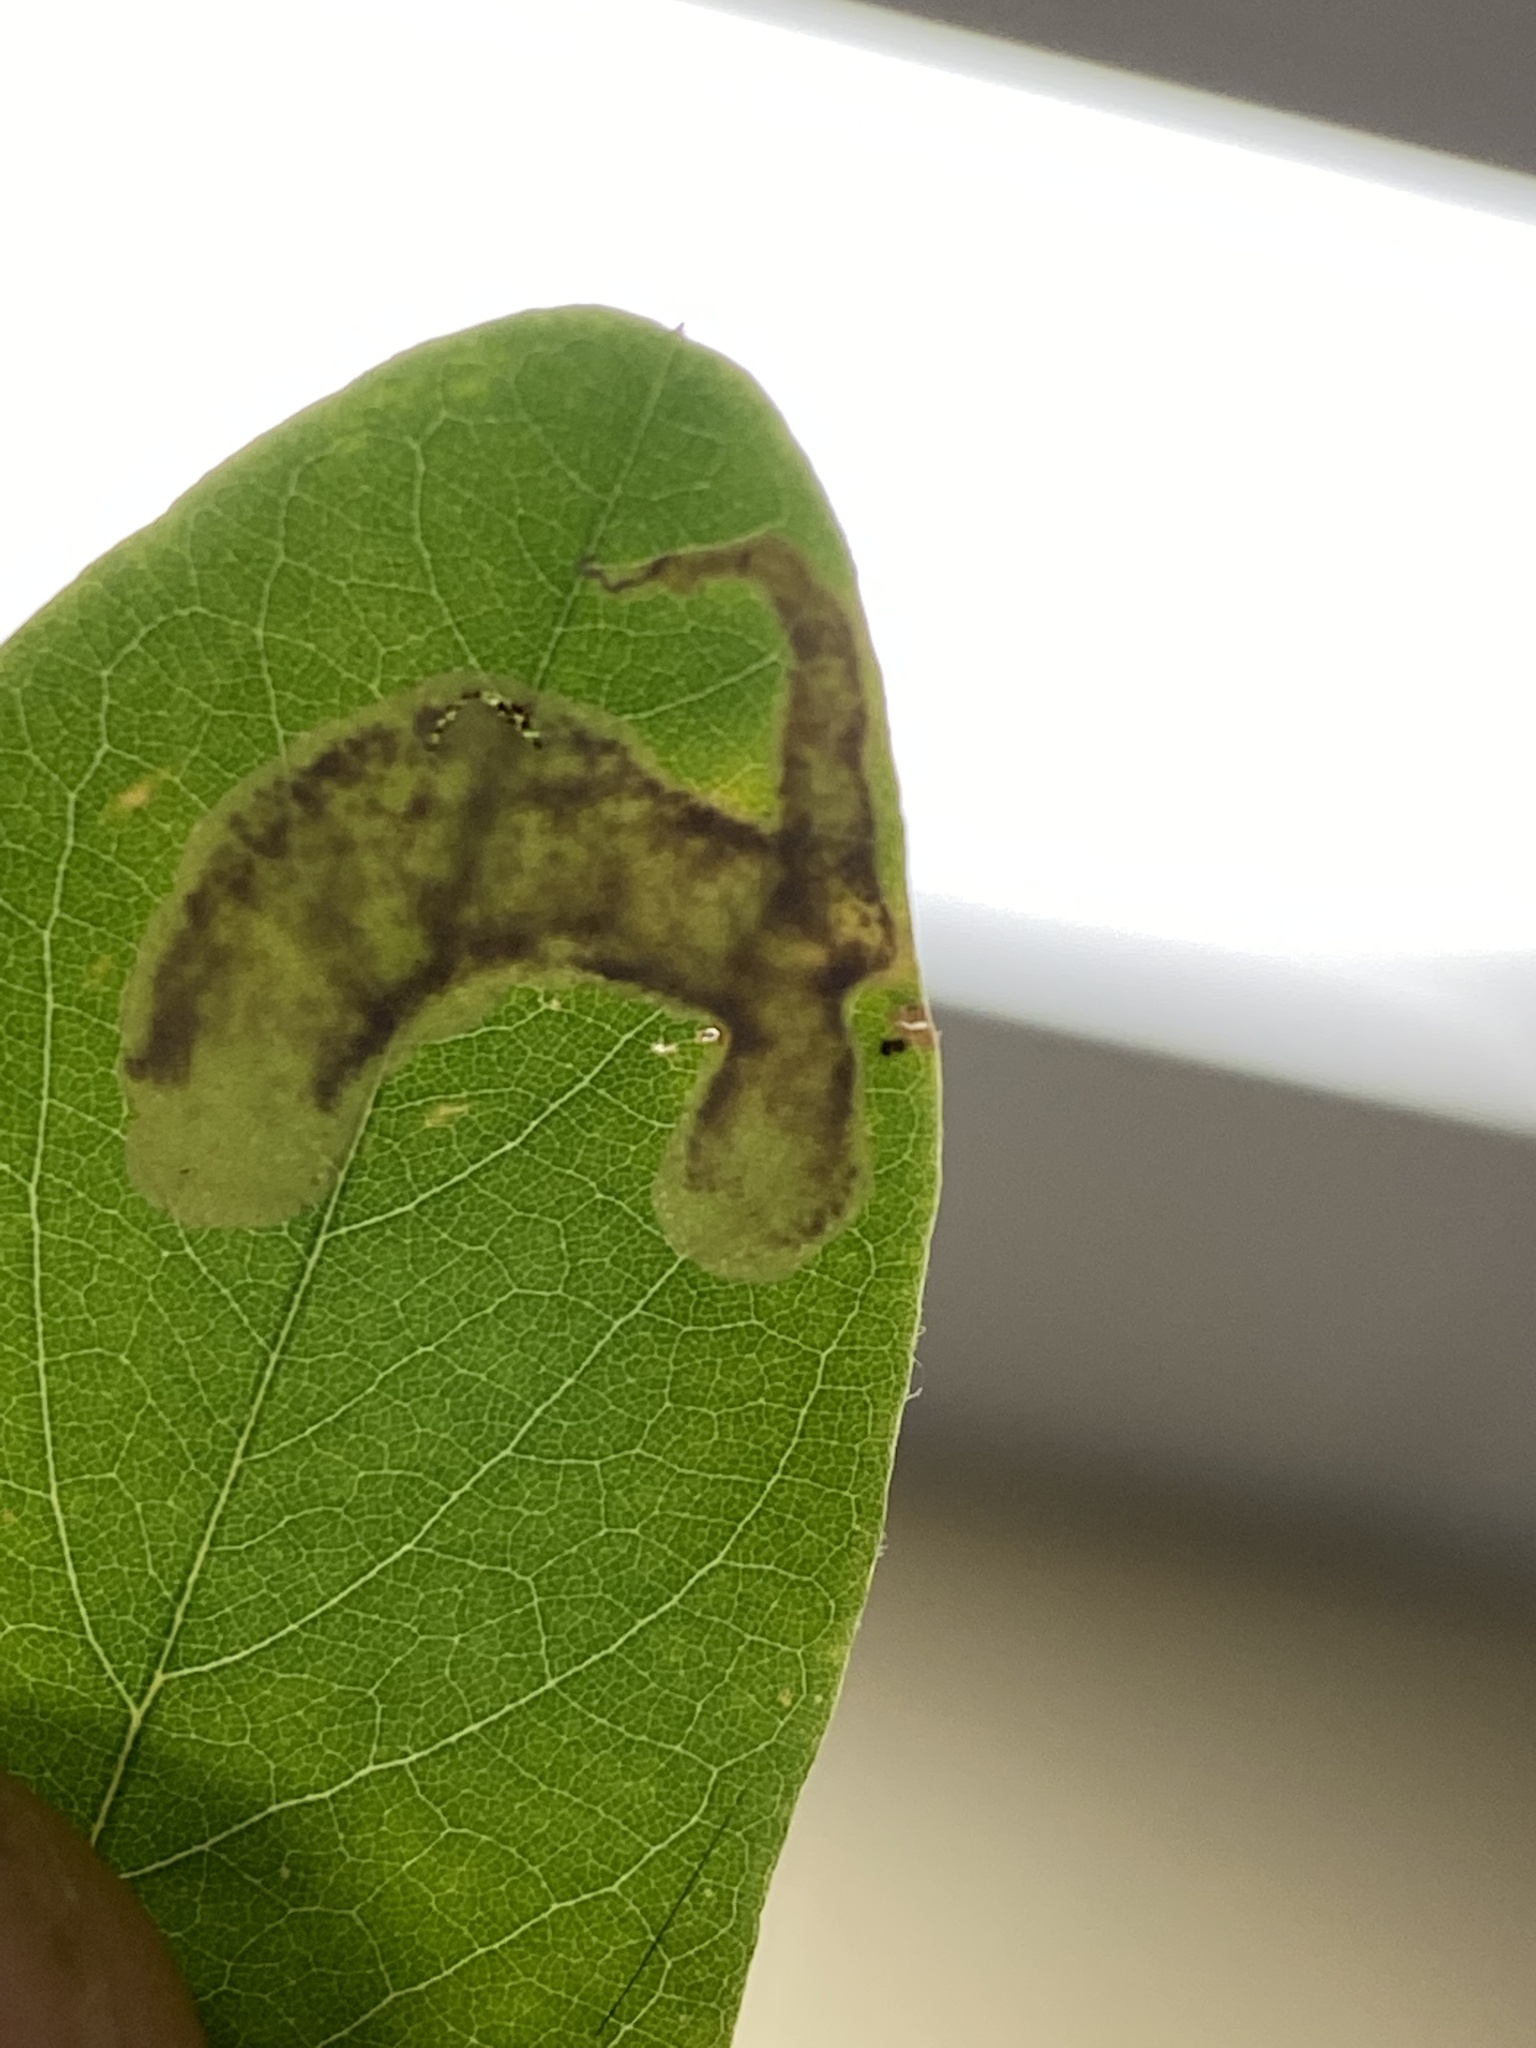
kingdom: Animalia
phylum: Arthropoda
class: Insecta
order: Lepidoptera
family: Gracillariidae
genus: Chrysaster
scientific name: Chrysaster ostensackenella
